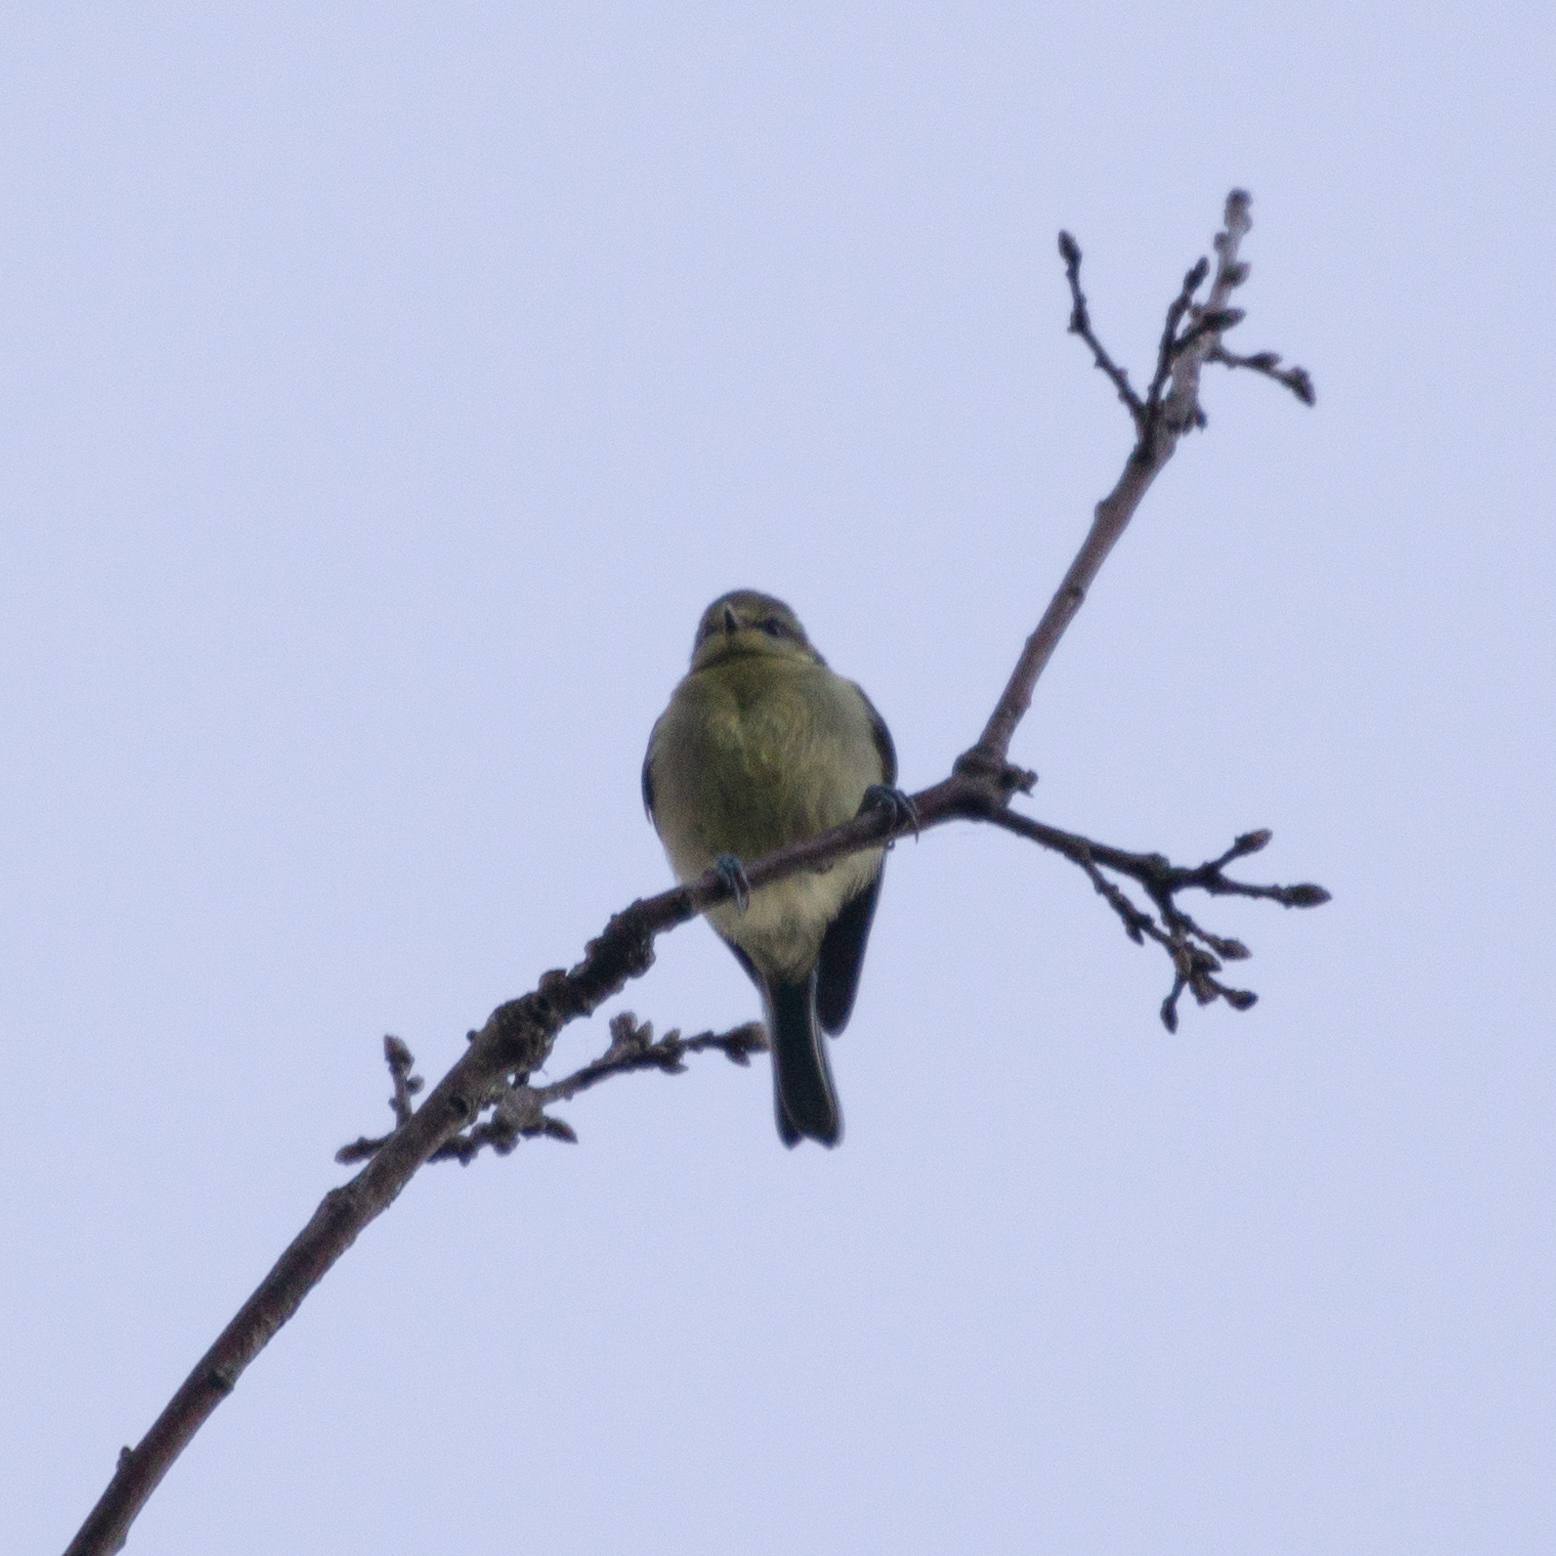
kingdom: Animalia
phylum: Chordata
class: Aves
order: Passeriformes
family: Paridae
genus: Cyanistes
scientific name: Cyanistes caeruleus
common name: Eurasian blue tit
